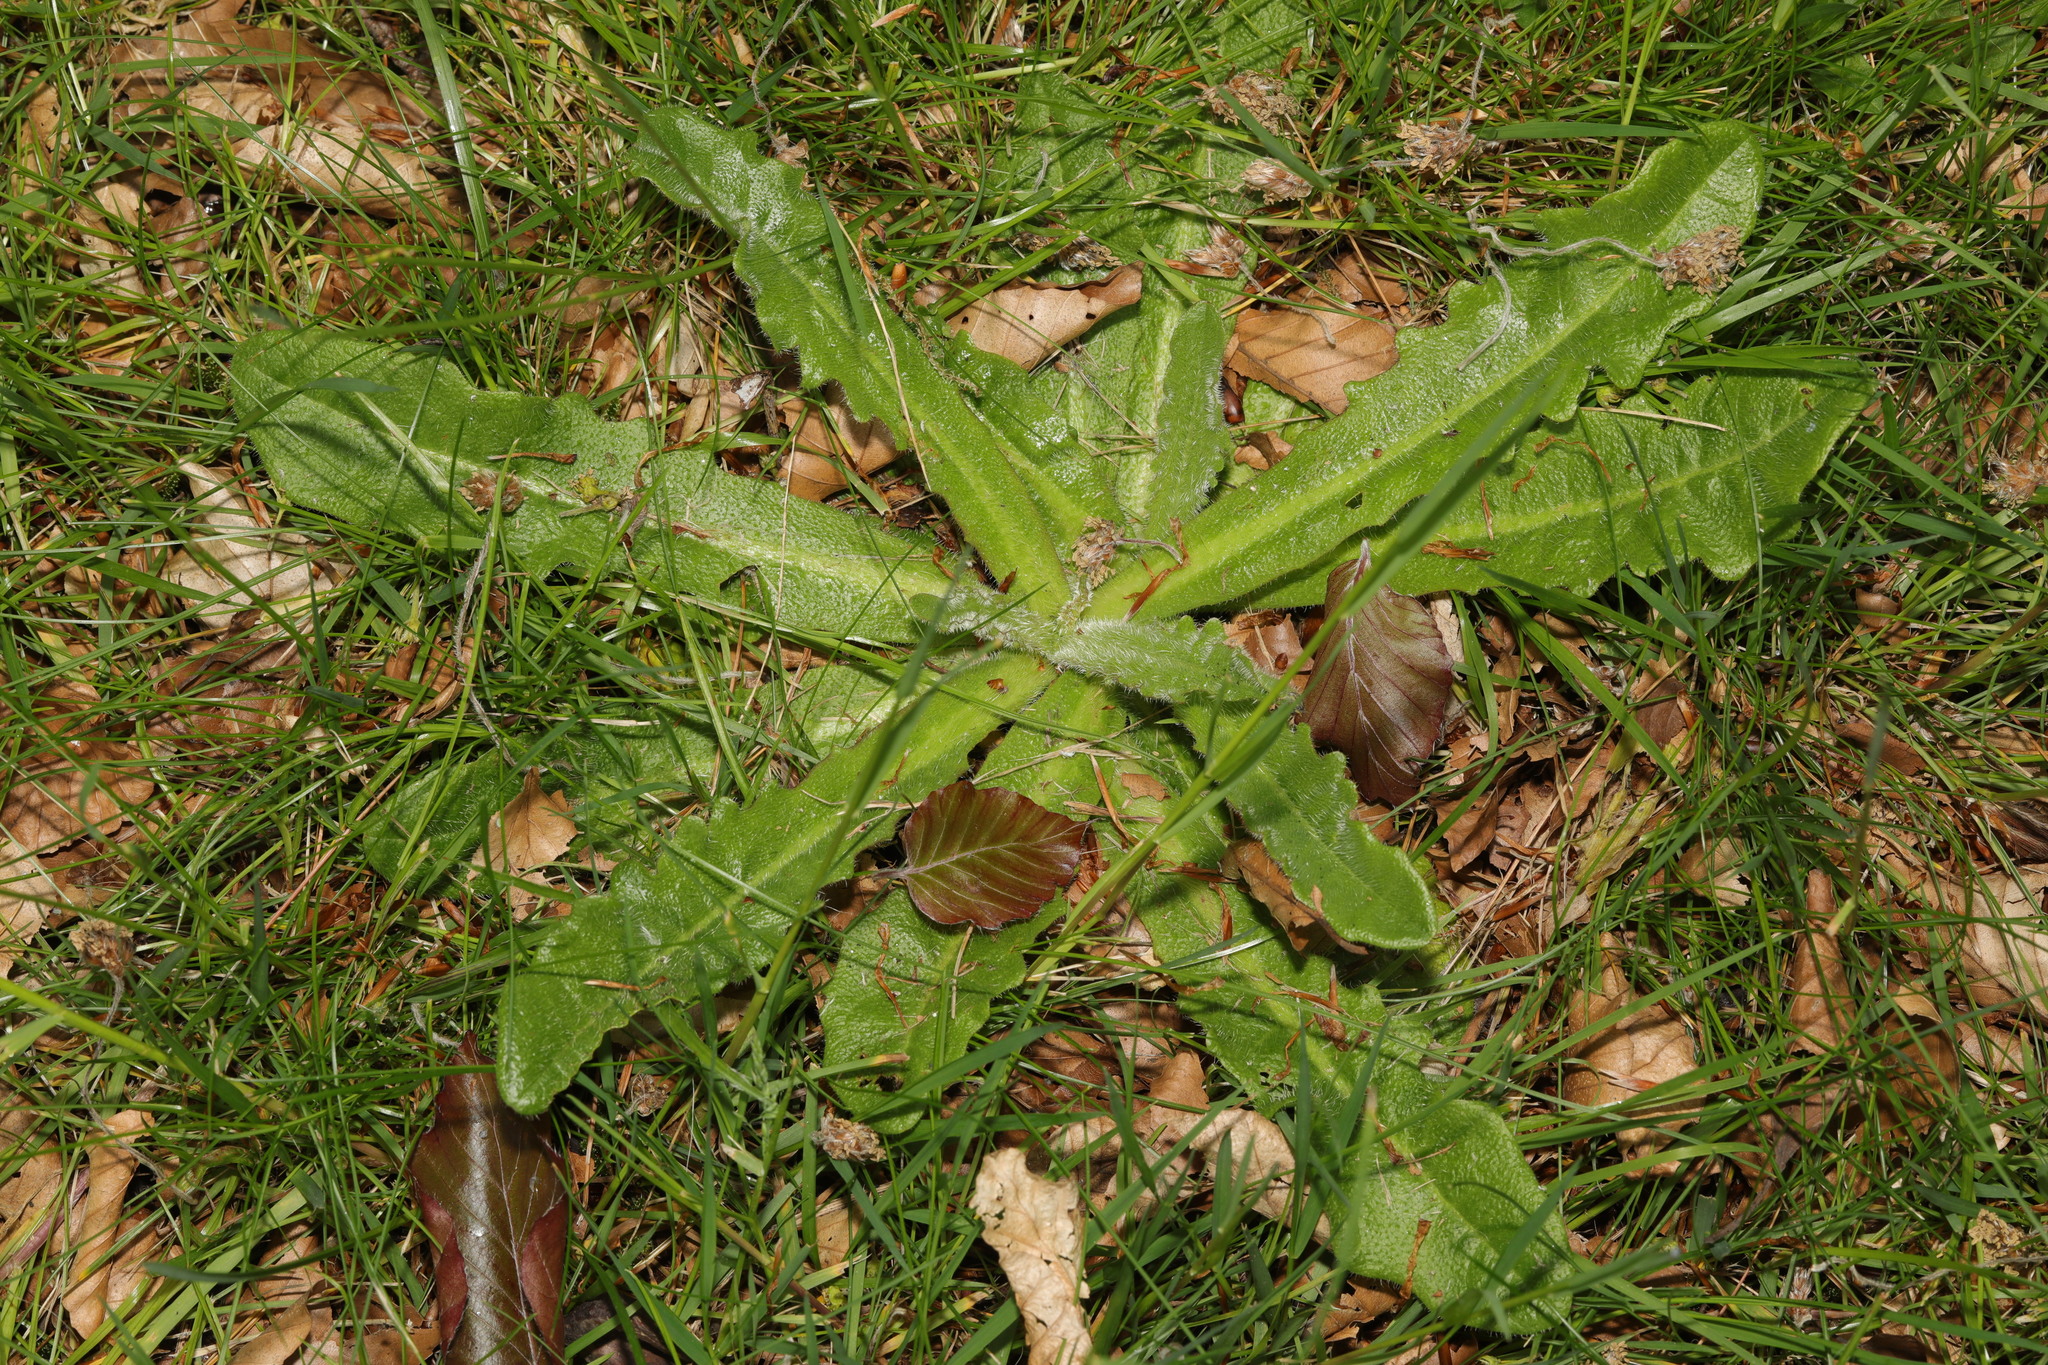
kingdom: Plantae
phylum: Tracheophyta
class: Magnoliopsida
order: Asterales
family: Asteraceae
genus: Hypochaeris
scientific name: Hypochaeris radicata
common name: Flatweed
